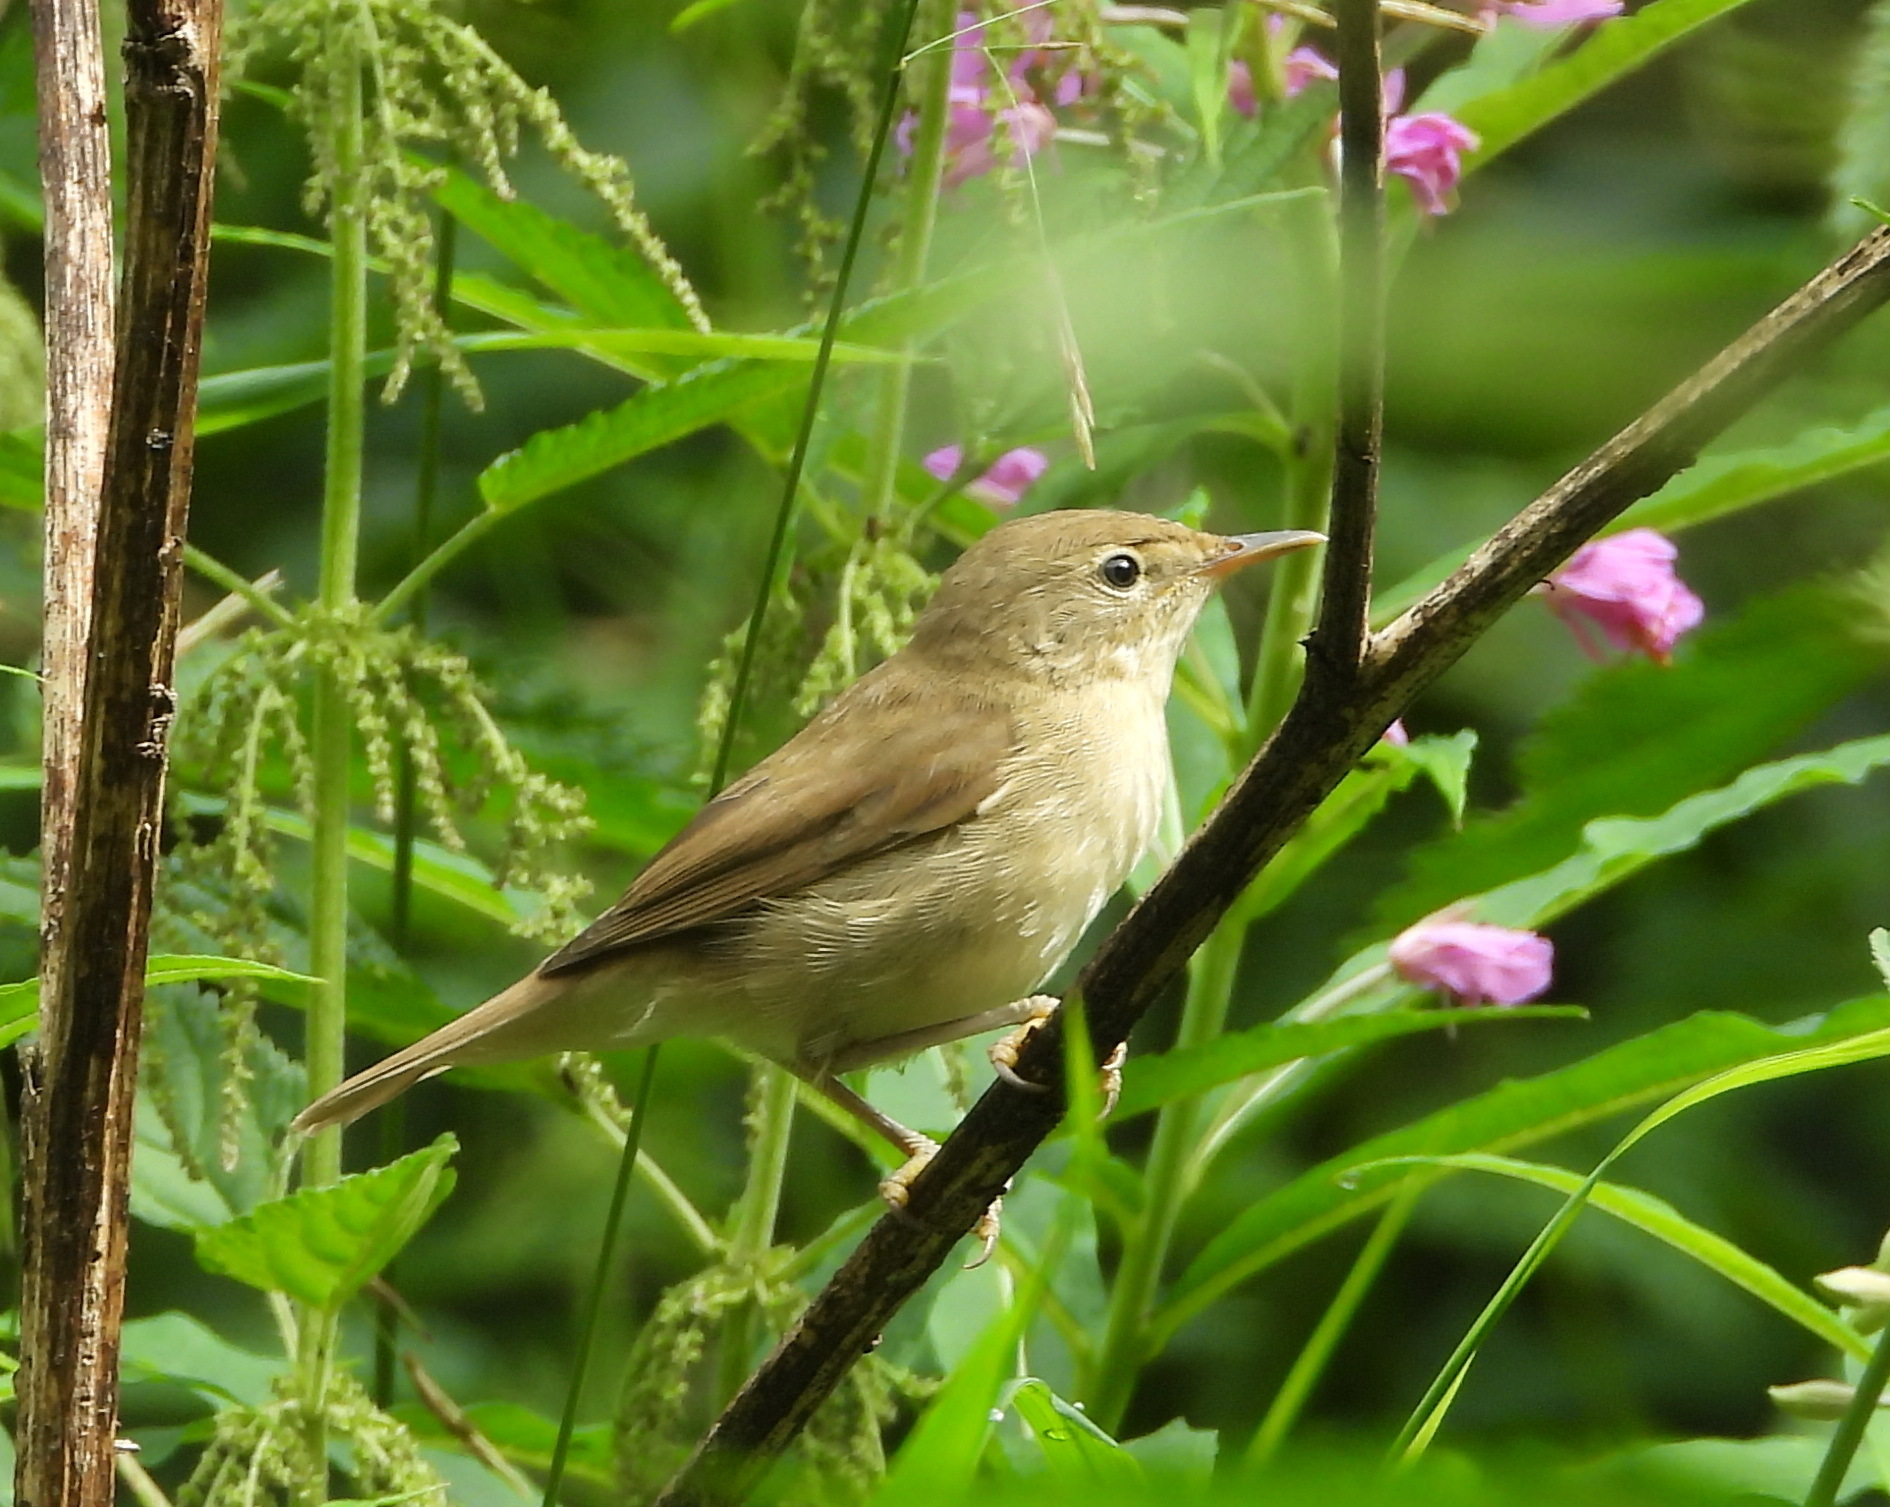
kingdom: Animalia
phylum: Chordata
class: Aves
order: Passeriformes
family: Acrocephalidae
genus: Acrocephalus
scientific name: Acrocephalus dumetorum
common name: Blyth's reed warbler
